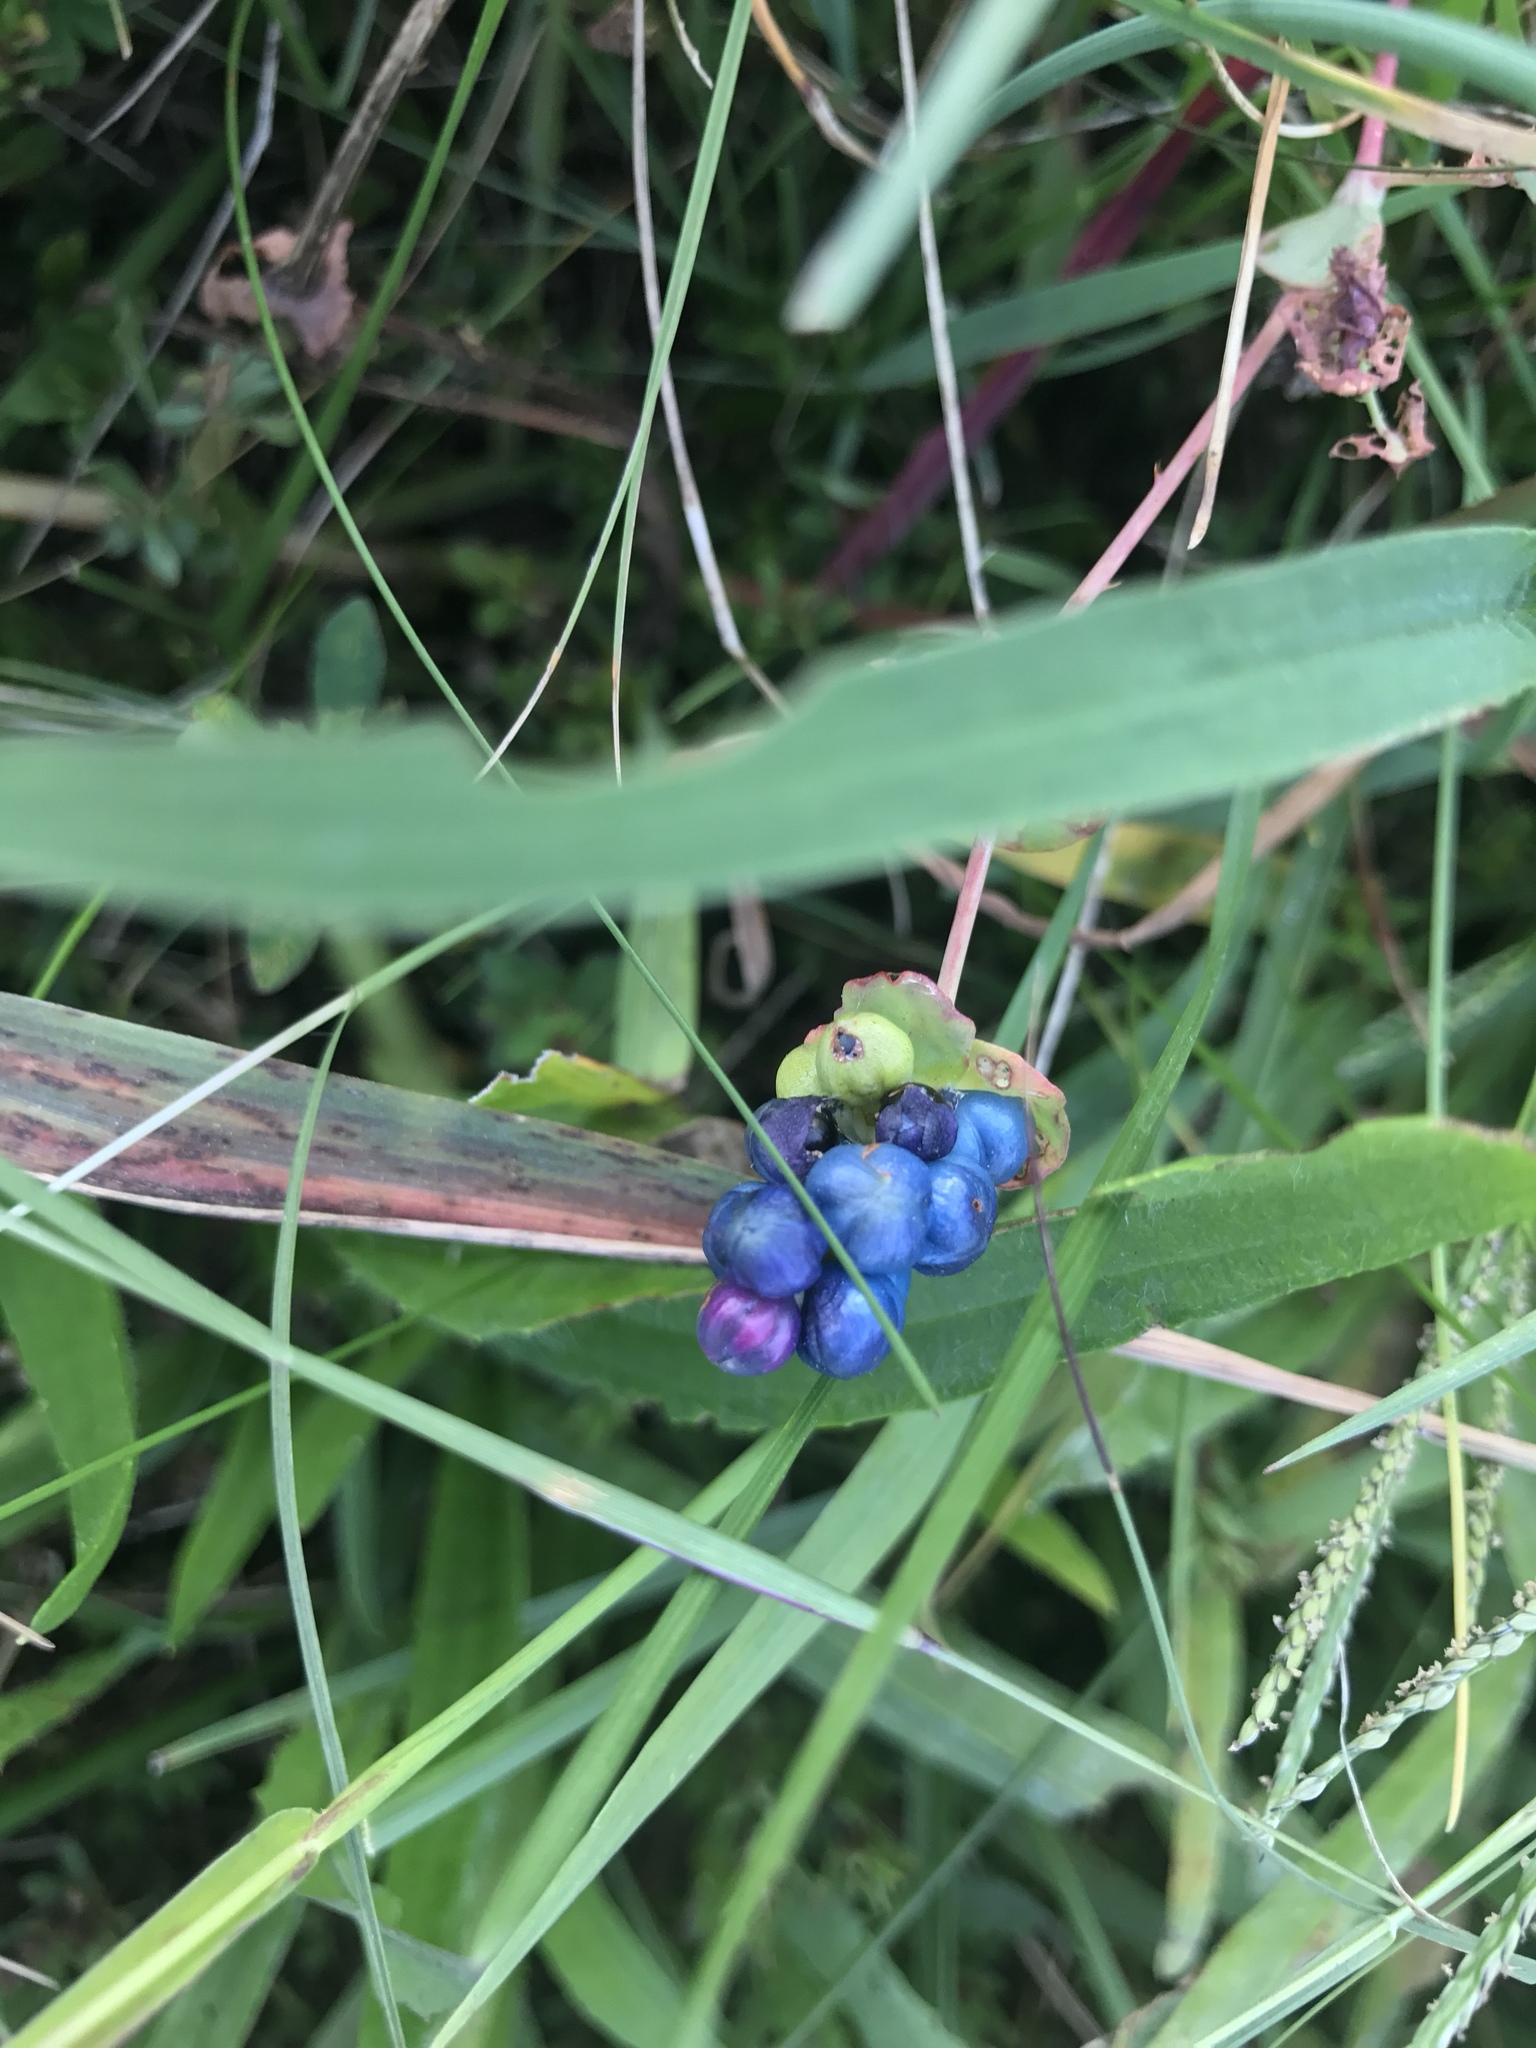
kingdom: Plantae
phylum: Tracheophyta
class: Magnoliopsida
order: Caryophyllales
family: Polygonaceae
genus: Persicaria
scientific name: Persicaria perfoliata
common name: Asiatic tearthumb
